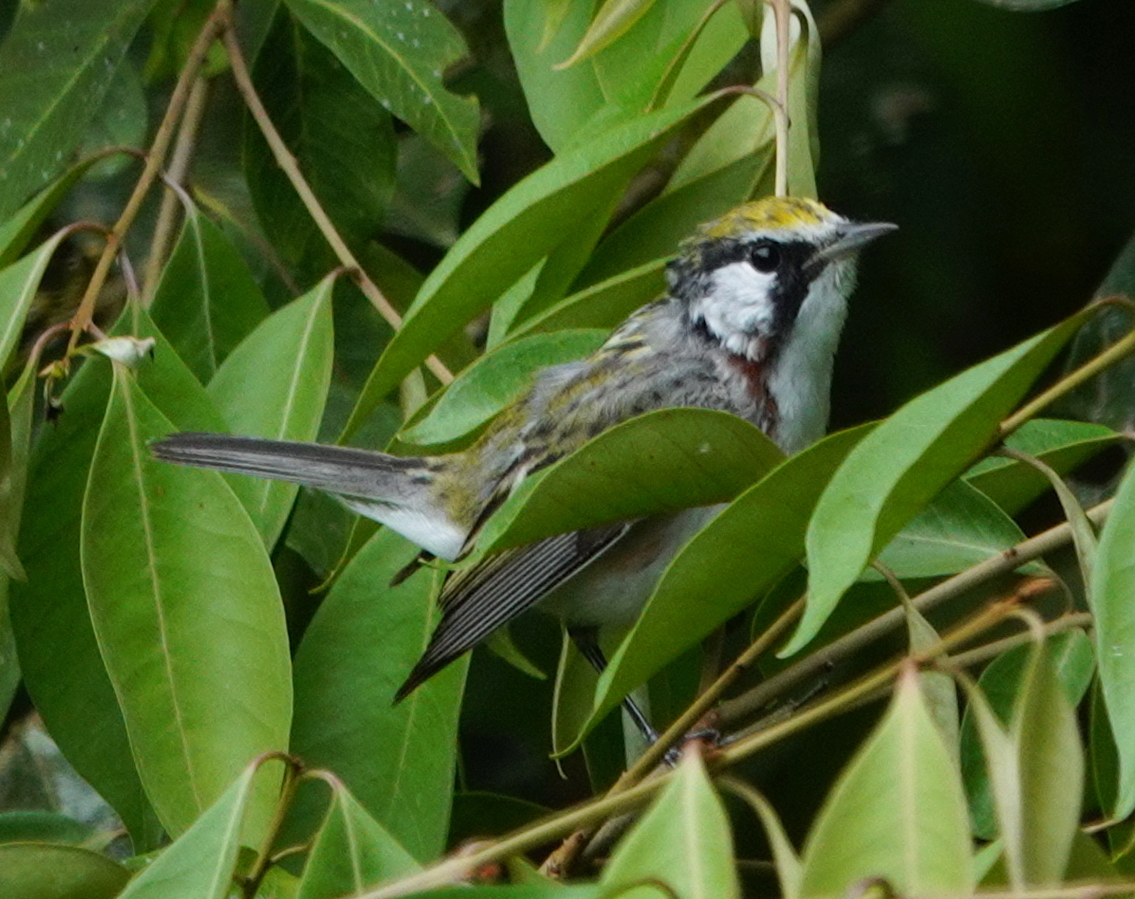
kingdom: Animalia
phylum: Chordata
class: Aves
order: Passeriformes
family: Parulidae
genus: Setophaga
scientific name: Setophaga pensylvanica
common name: Chestnut-sided warbler
